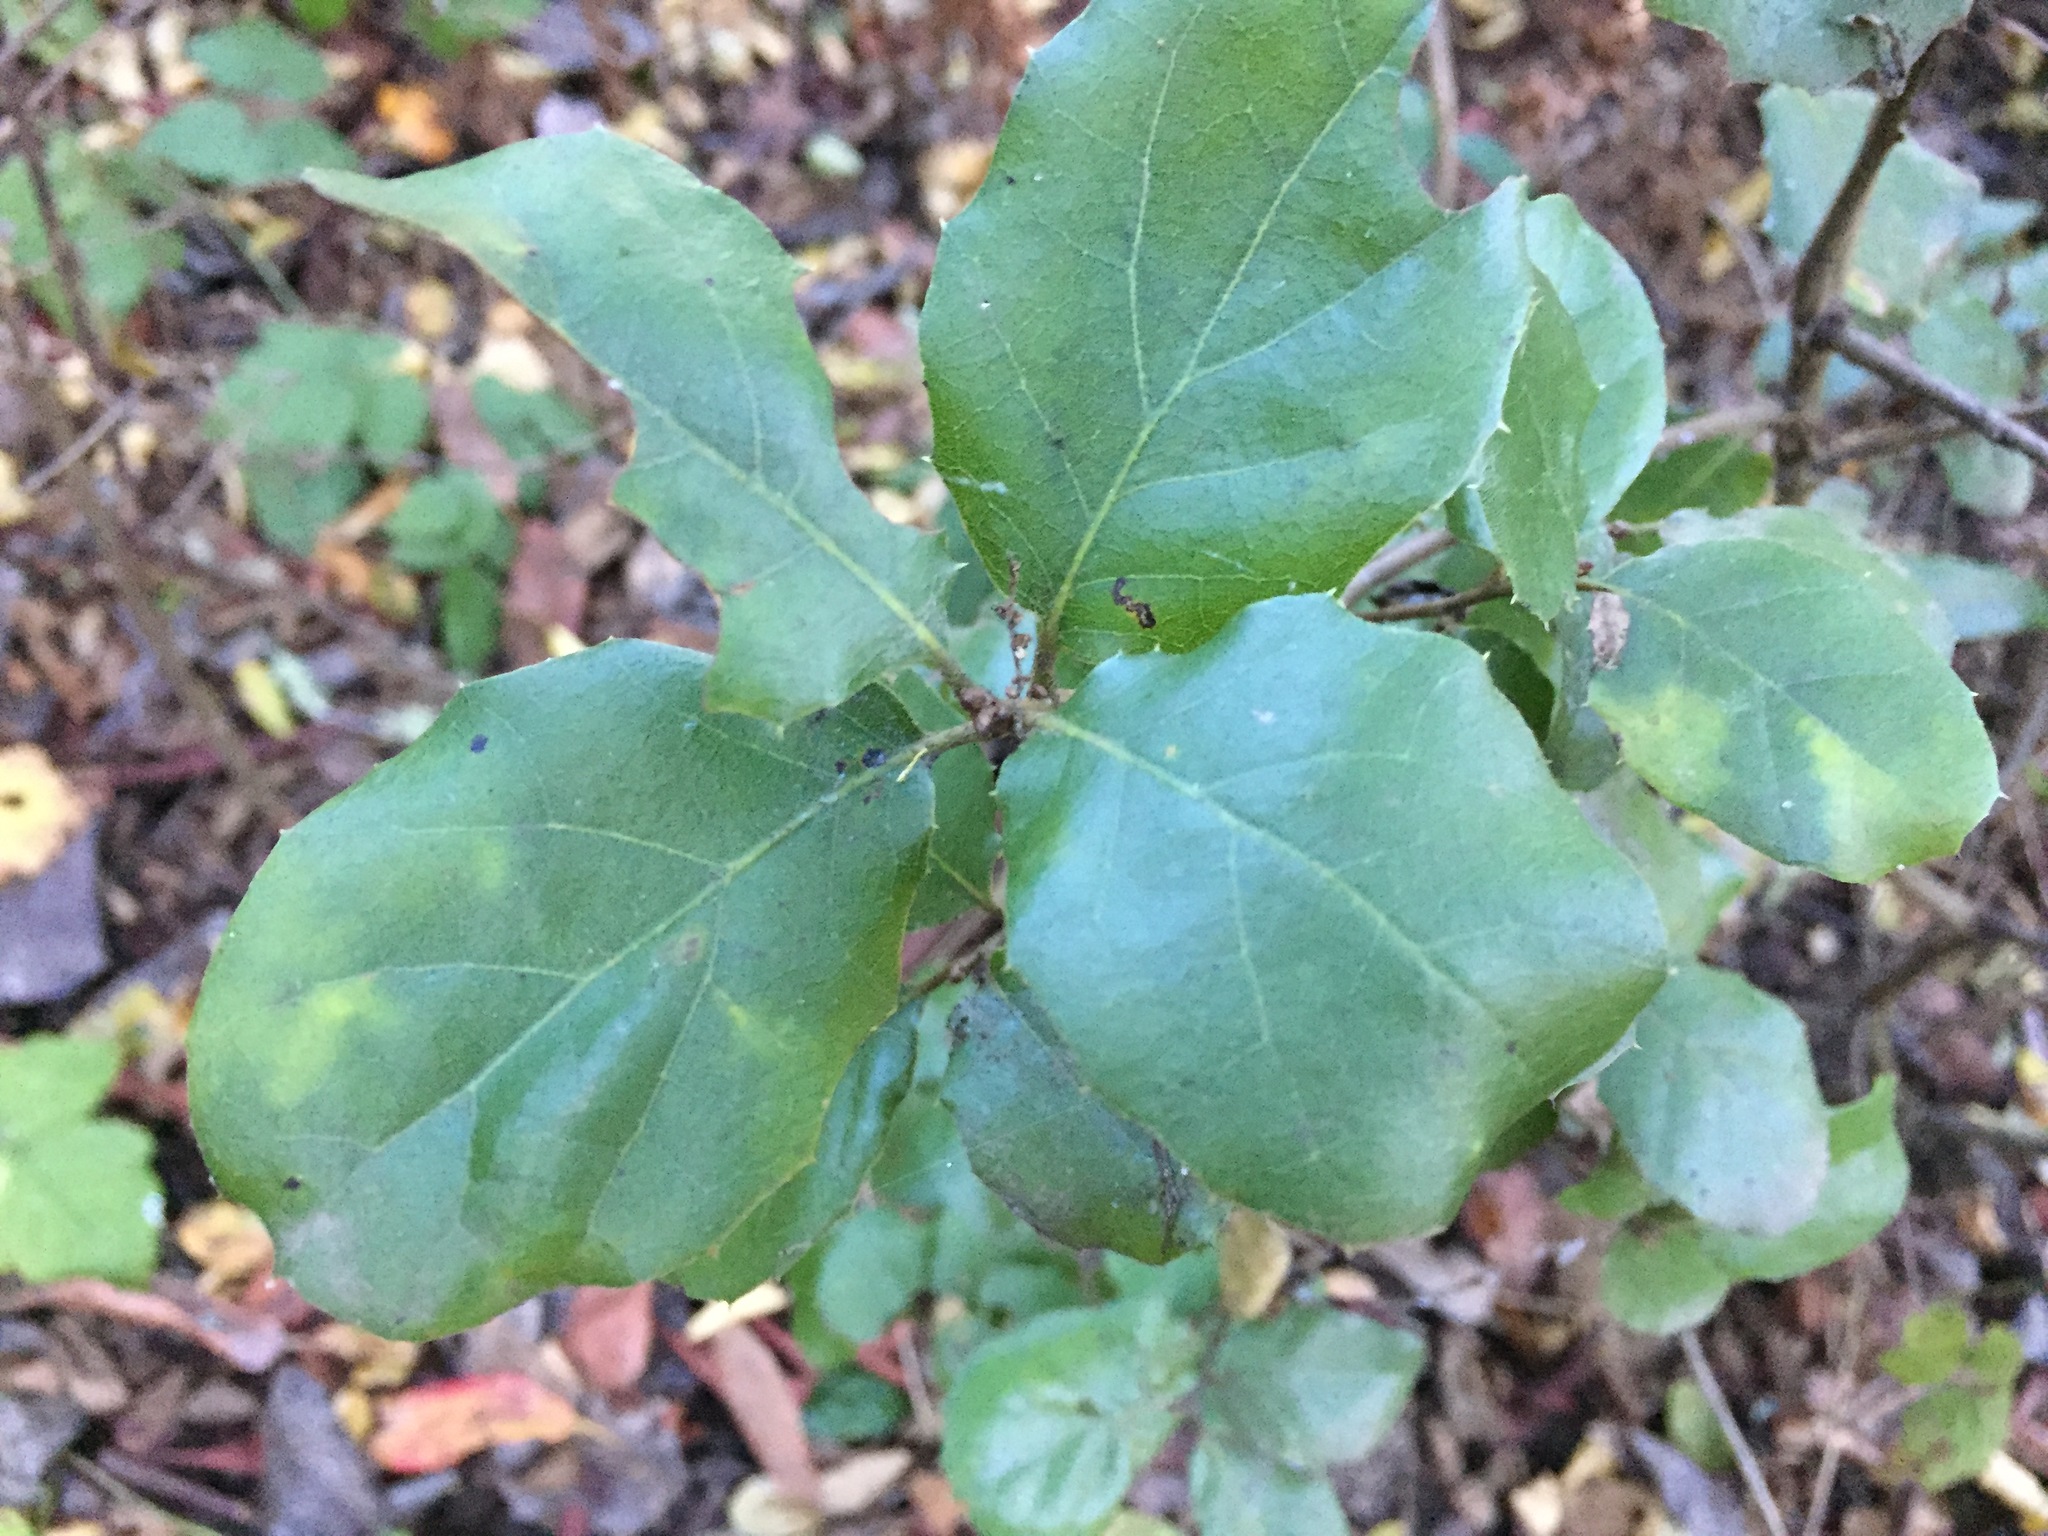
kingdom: Plantae
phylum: Tracheophyta
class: Magnoliopsida
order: Fagales
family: Fagaceae
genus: Quercus
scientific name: Quercus agrifolia
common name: California live oak
